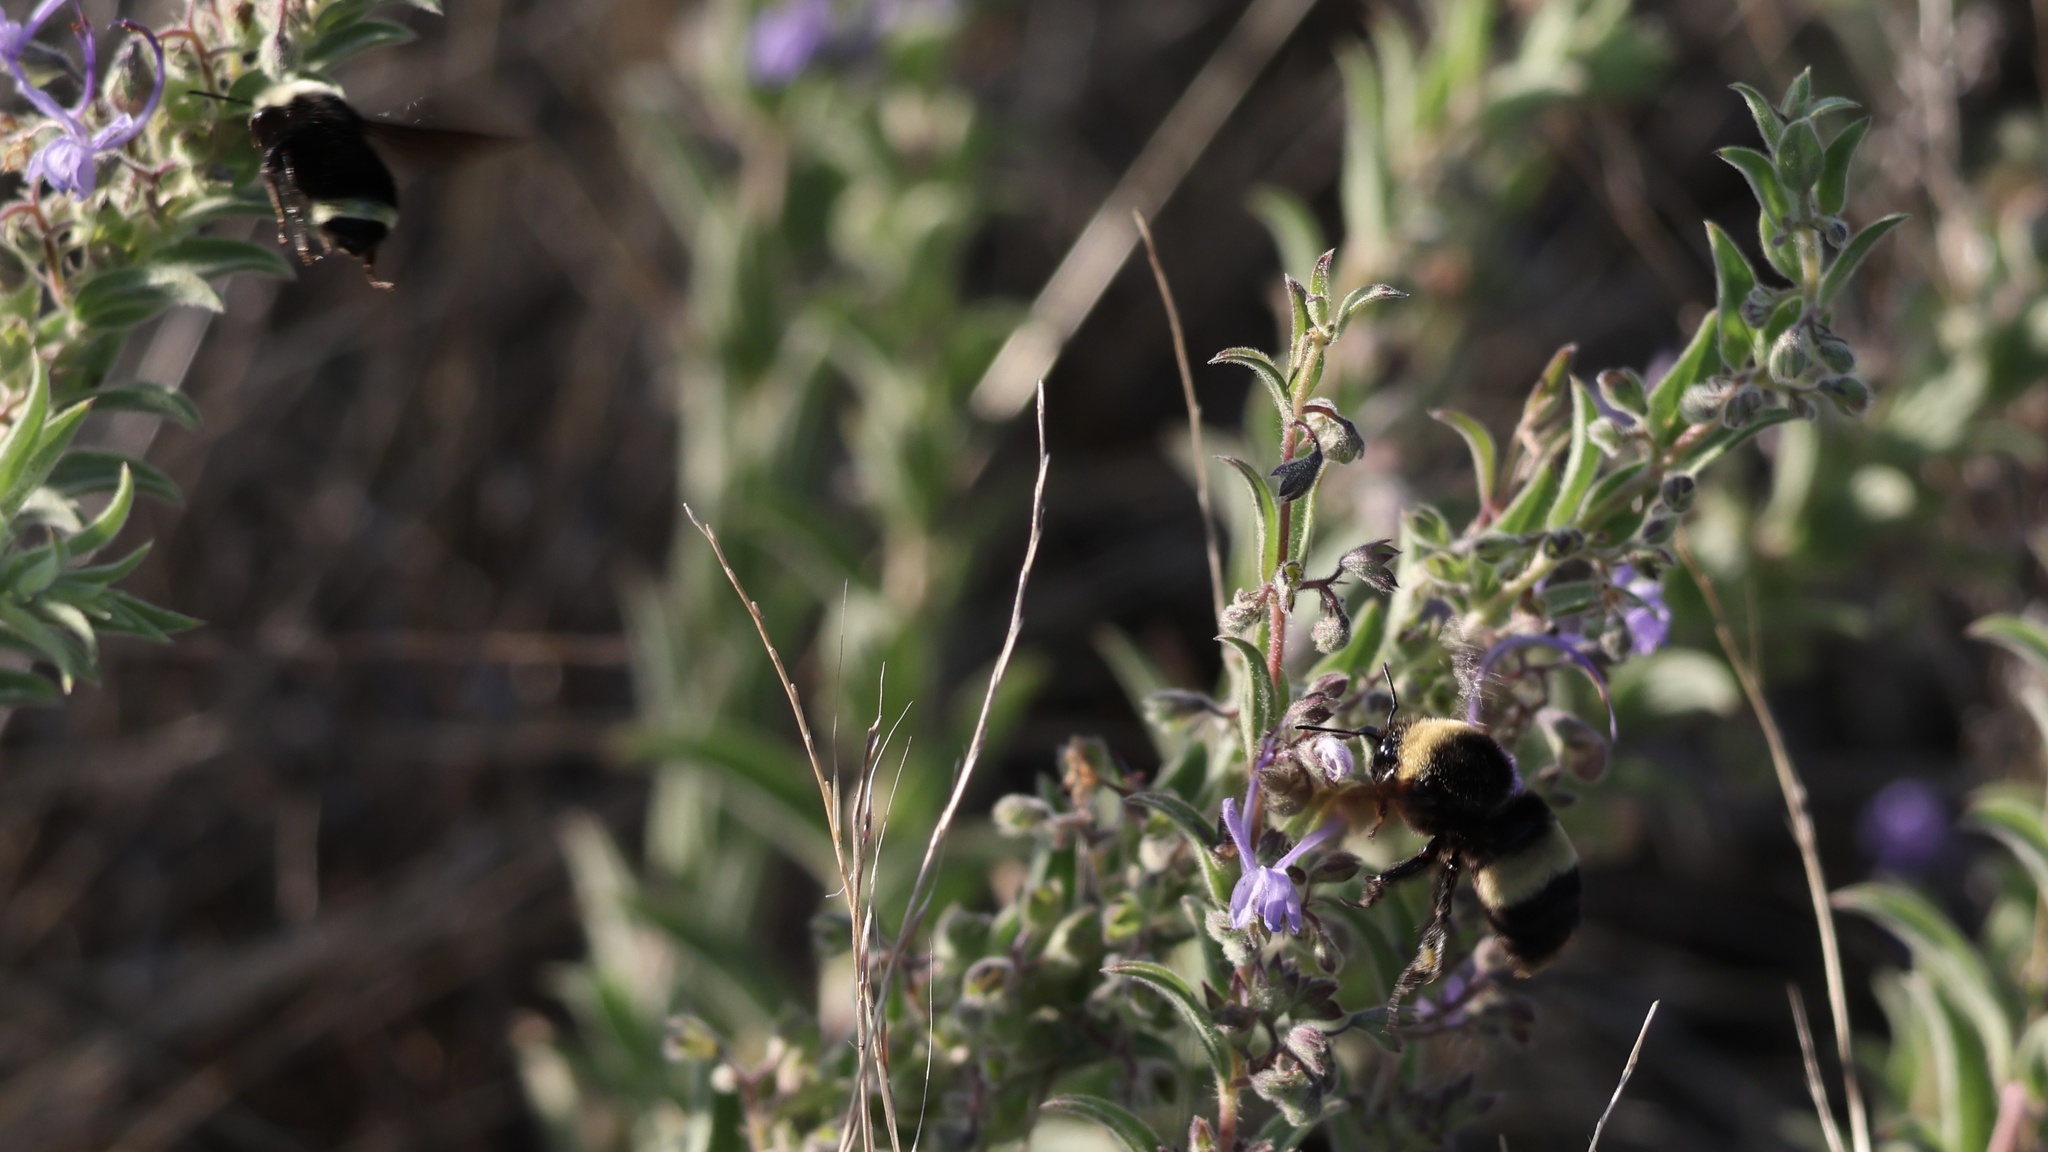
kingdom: Animalia
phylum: Arthropoda
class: Insecta
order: Hymenoptera
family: Apidae
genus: Bombus
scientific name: Bombus crotchii
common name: Crotch bumble bee
